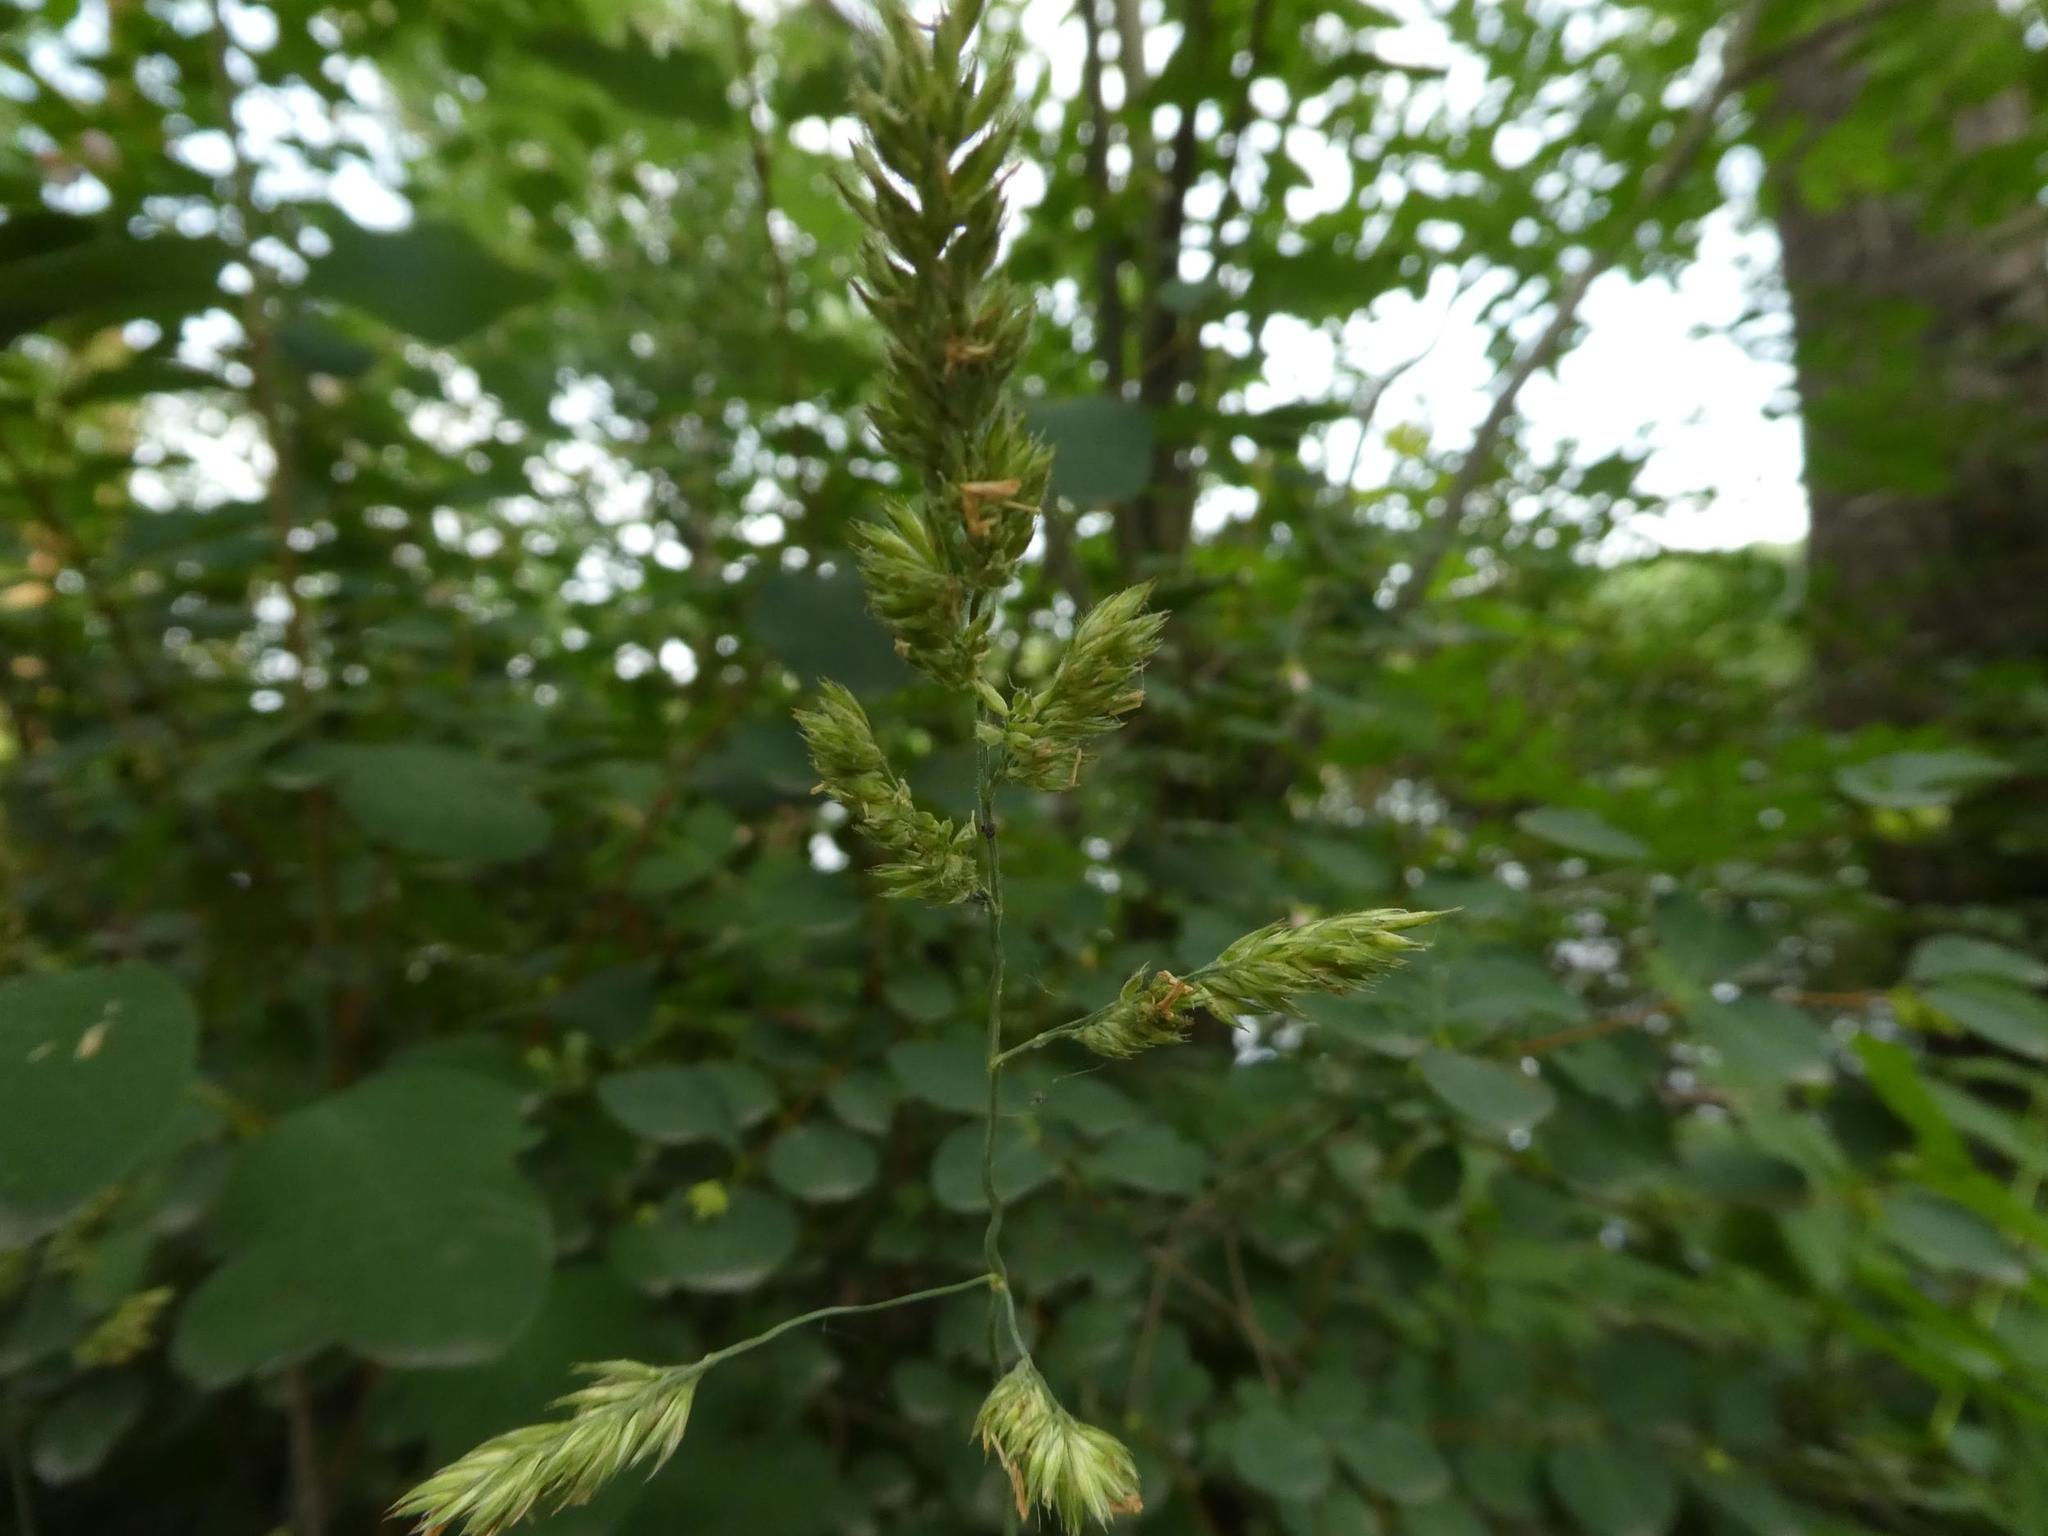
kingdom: Plantae
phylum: Tracheophyta
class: Liliopsida
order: Poales
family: Poaceae
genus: Dactylis
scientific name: Dactylis glomerata
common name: Orchardgrass
